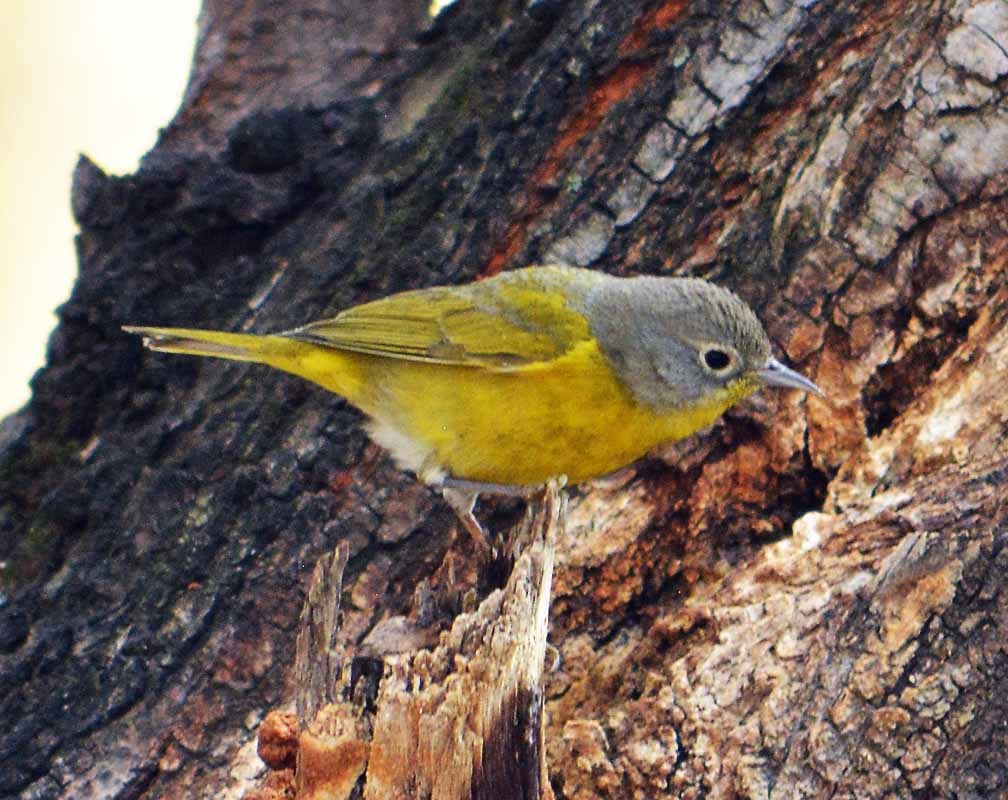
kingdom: Animalia
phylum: Chordata
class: Aves
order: Passeriformes
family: Parulidae
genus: Leiothlypis
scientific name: Leiothlypis ruficapilla
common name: Nashville warbler
